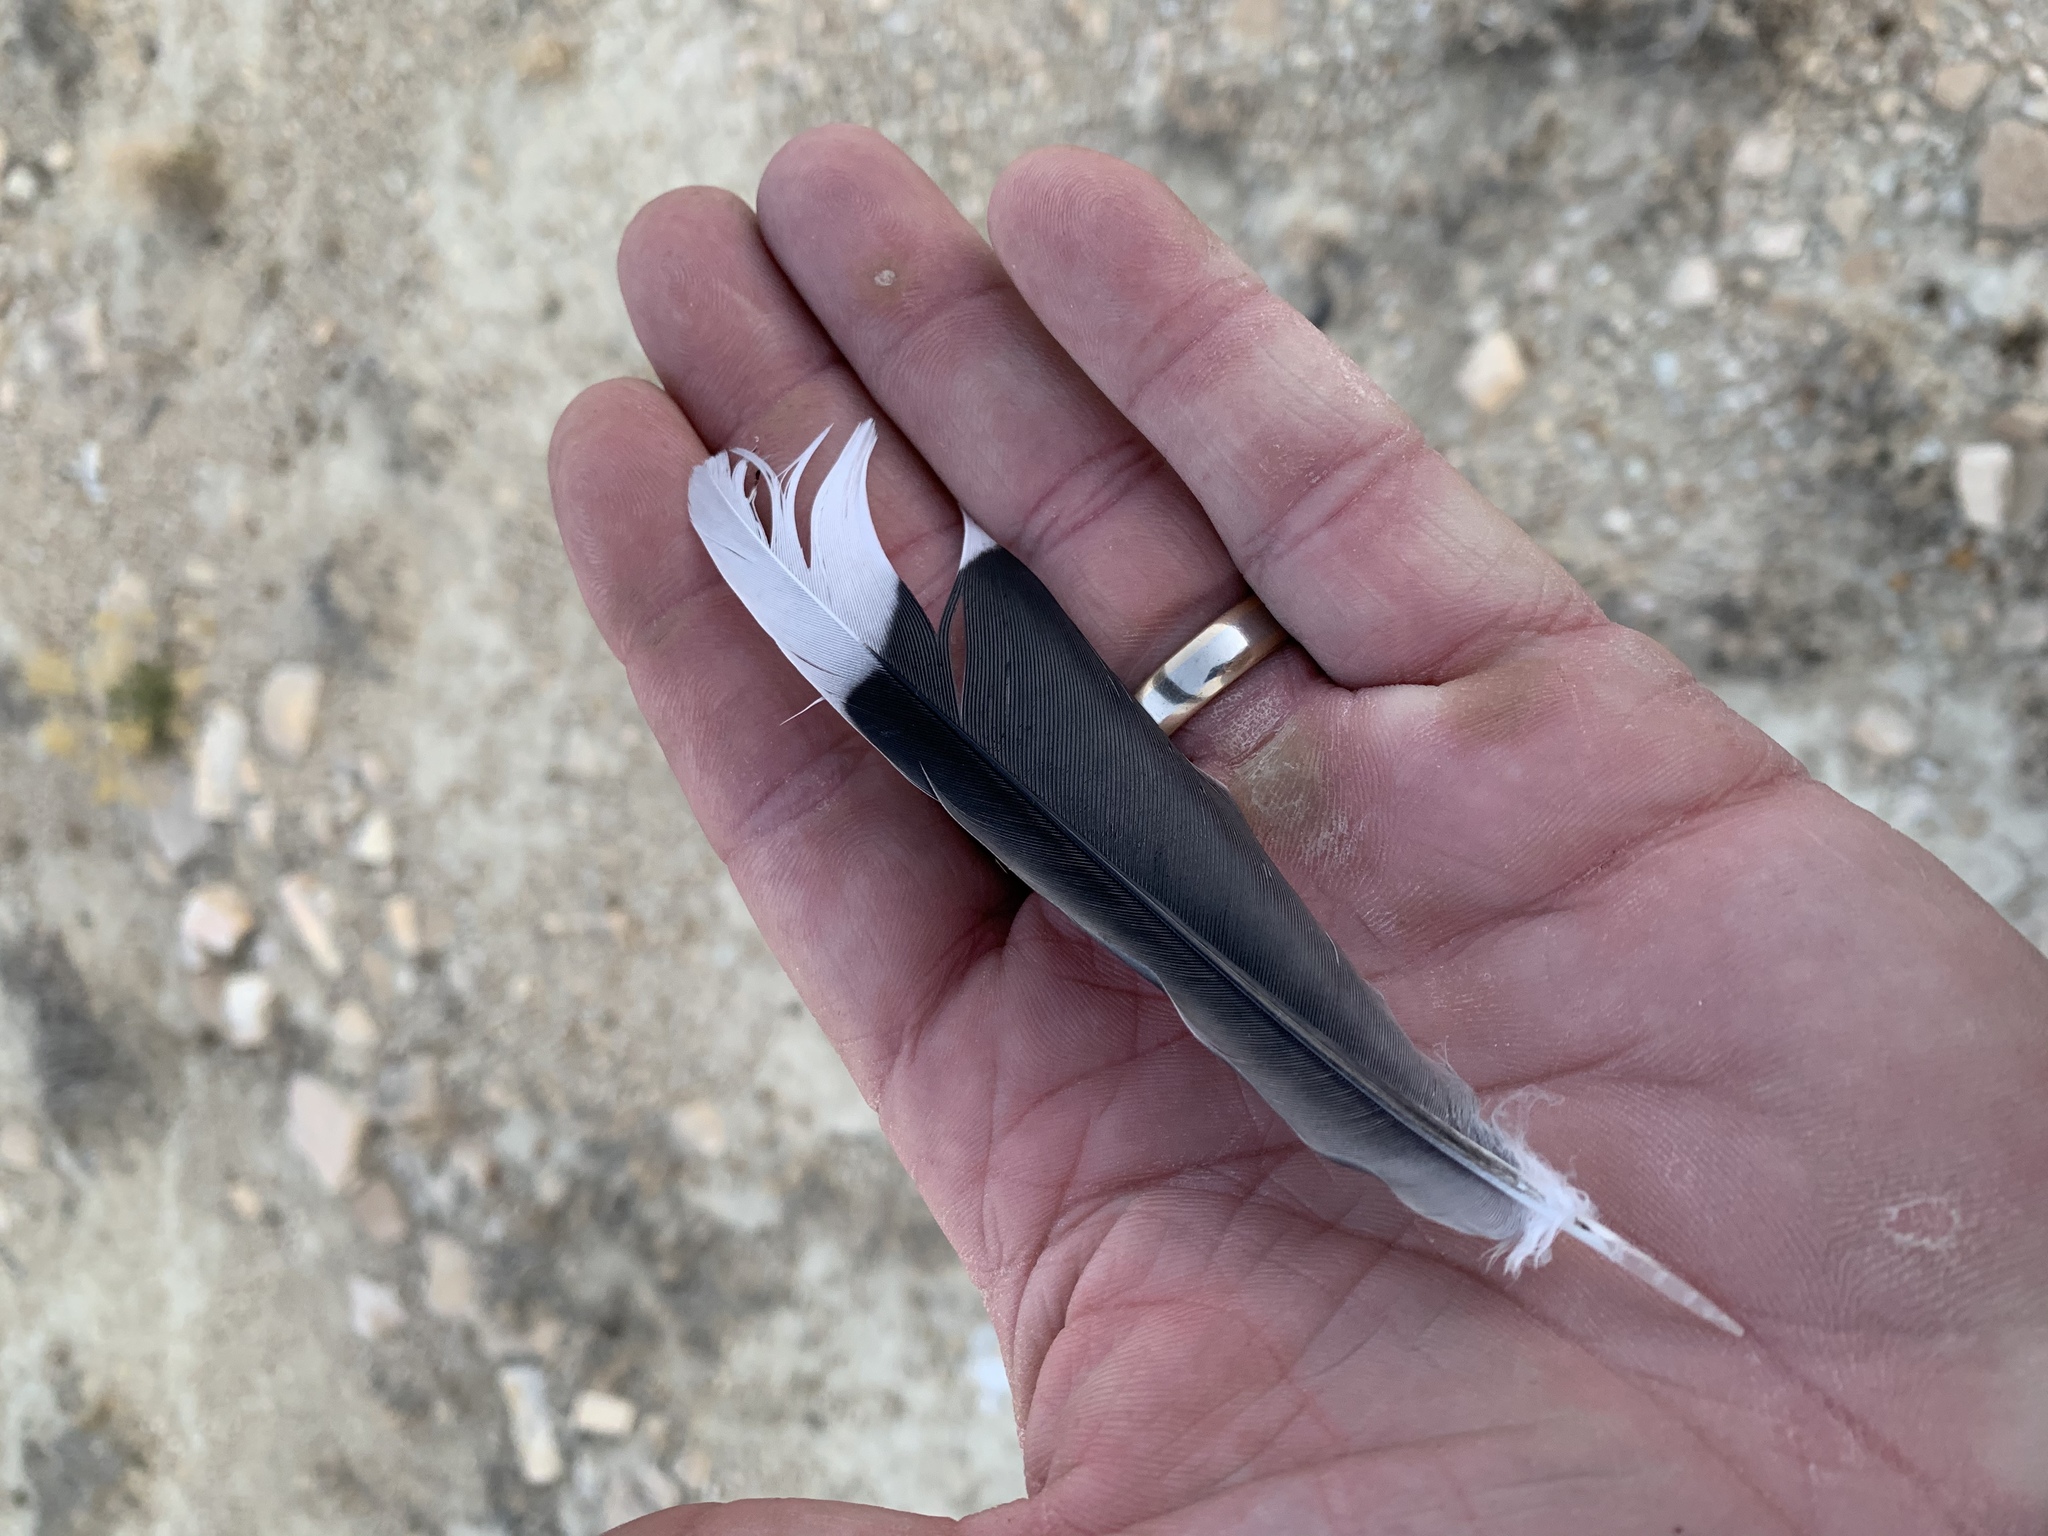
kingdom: Animalia
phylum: Chordata
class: Aves
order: Columbiformes
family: Columbidae
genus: Zenaida
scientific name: Zenaida asiatica
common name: White-winged dove
